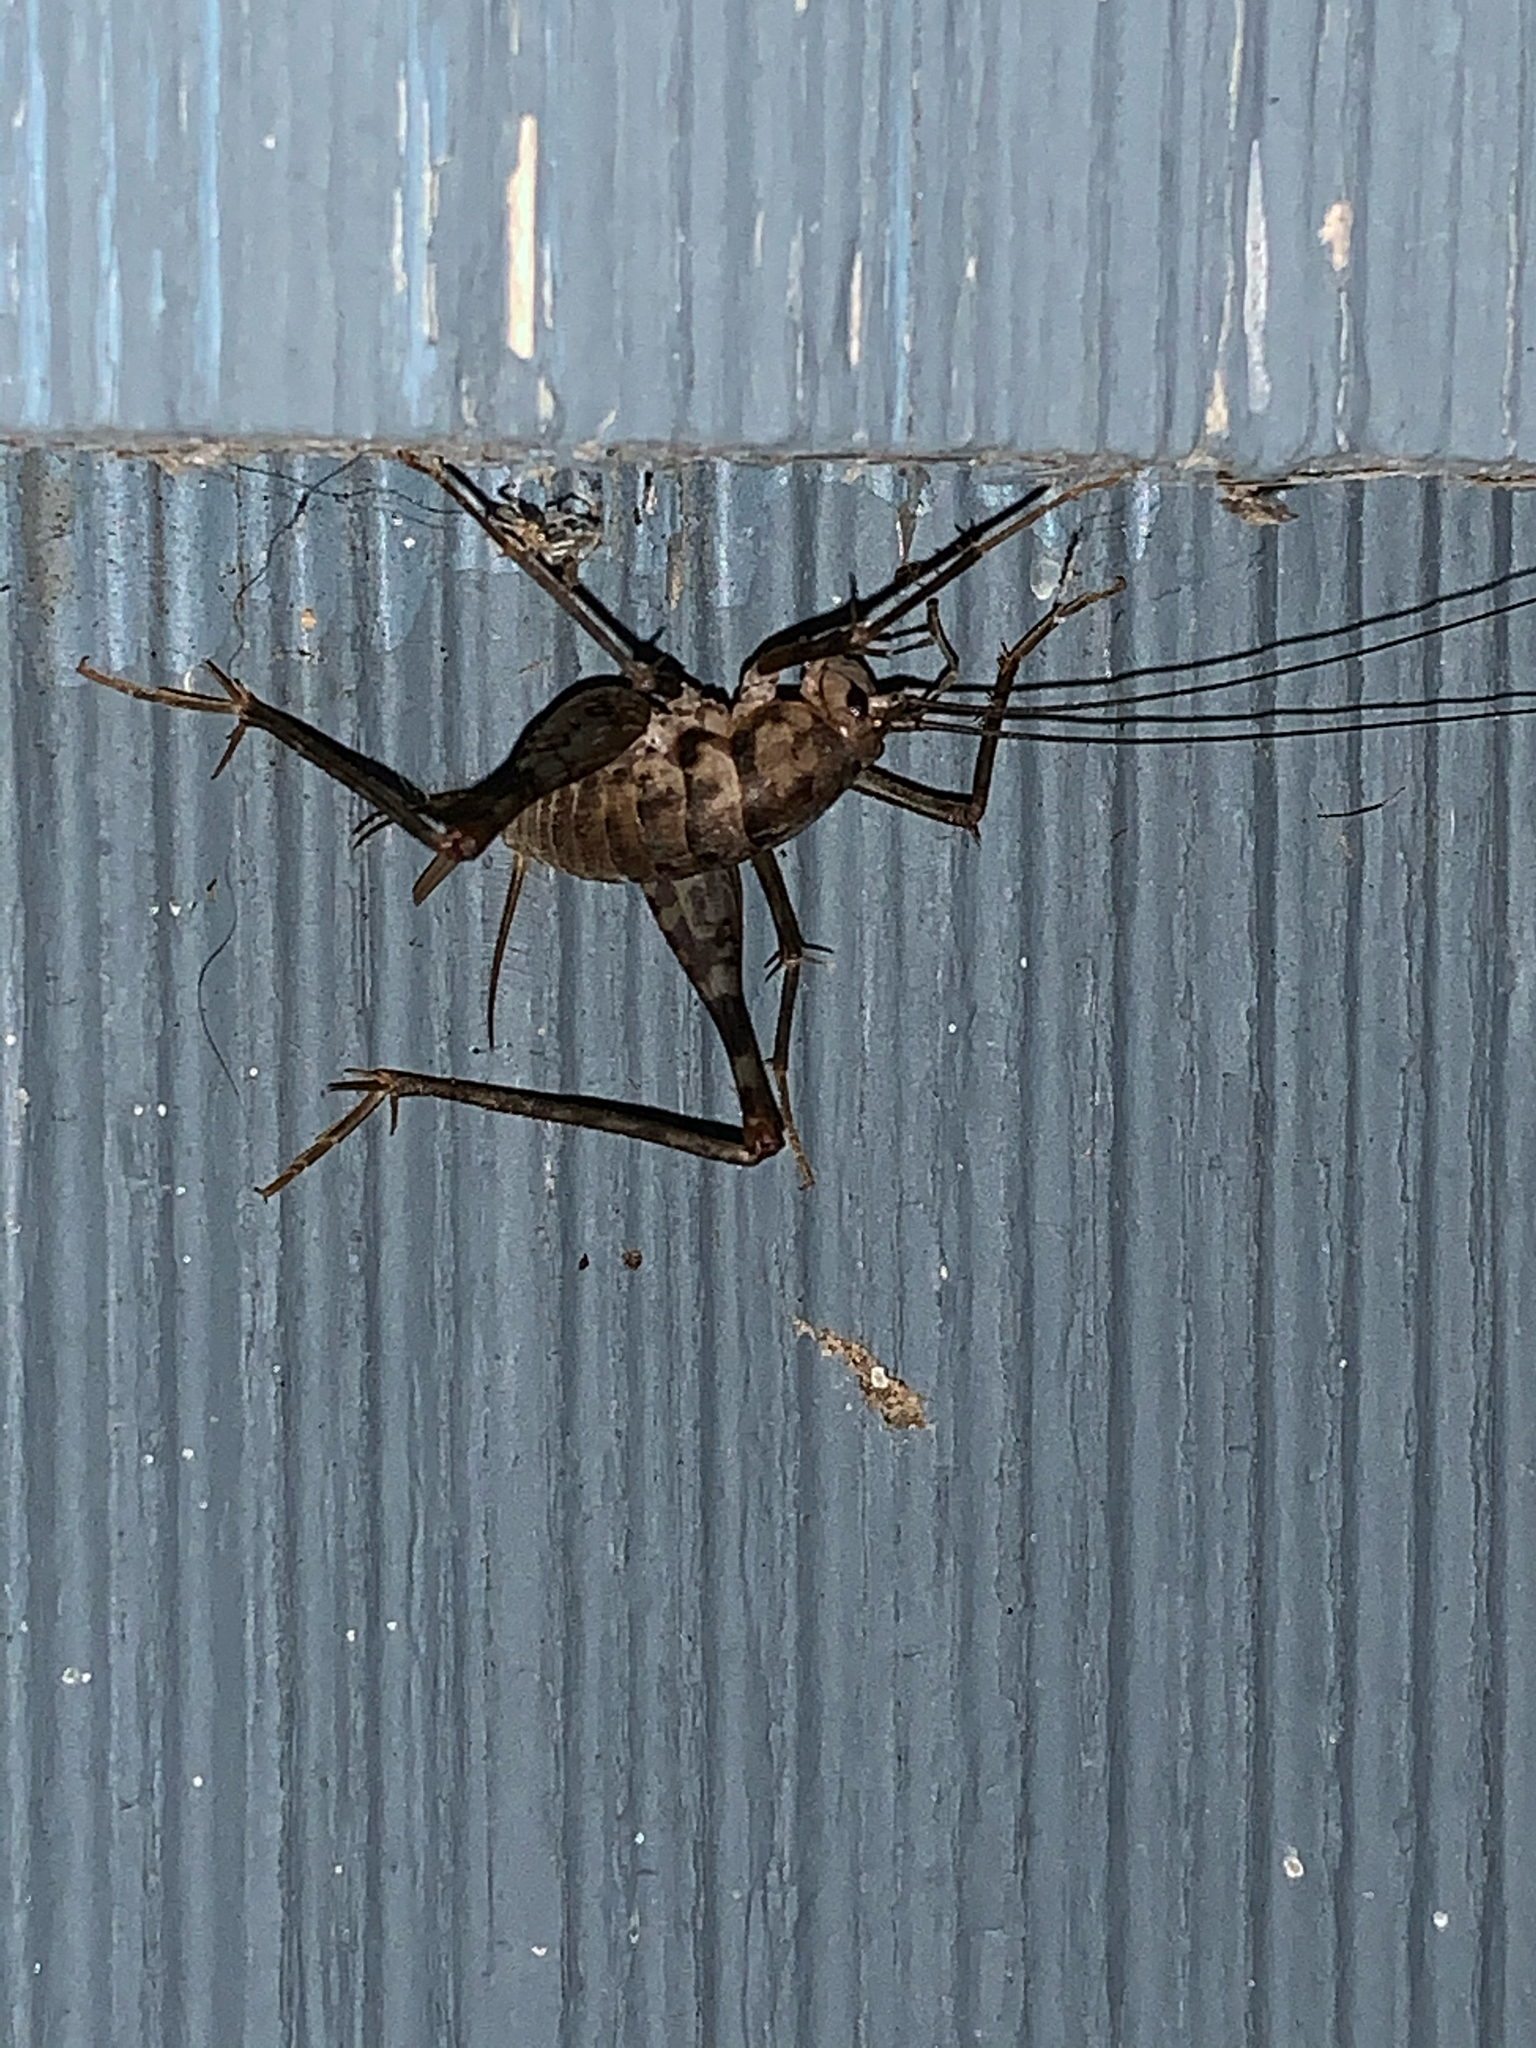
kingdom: Animalia
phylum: Arthropoda
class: Insecta
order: Orthoptera
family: Rhaphidophoridae
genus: Tachycines
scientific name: Tachycines asynamorus
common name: Greenhouse camel cricket
